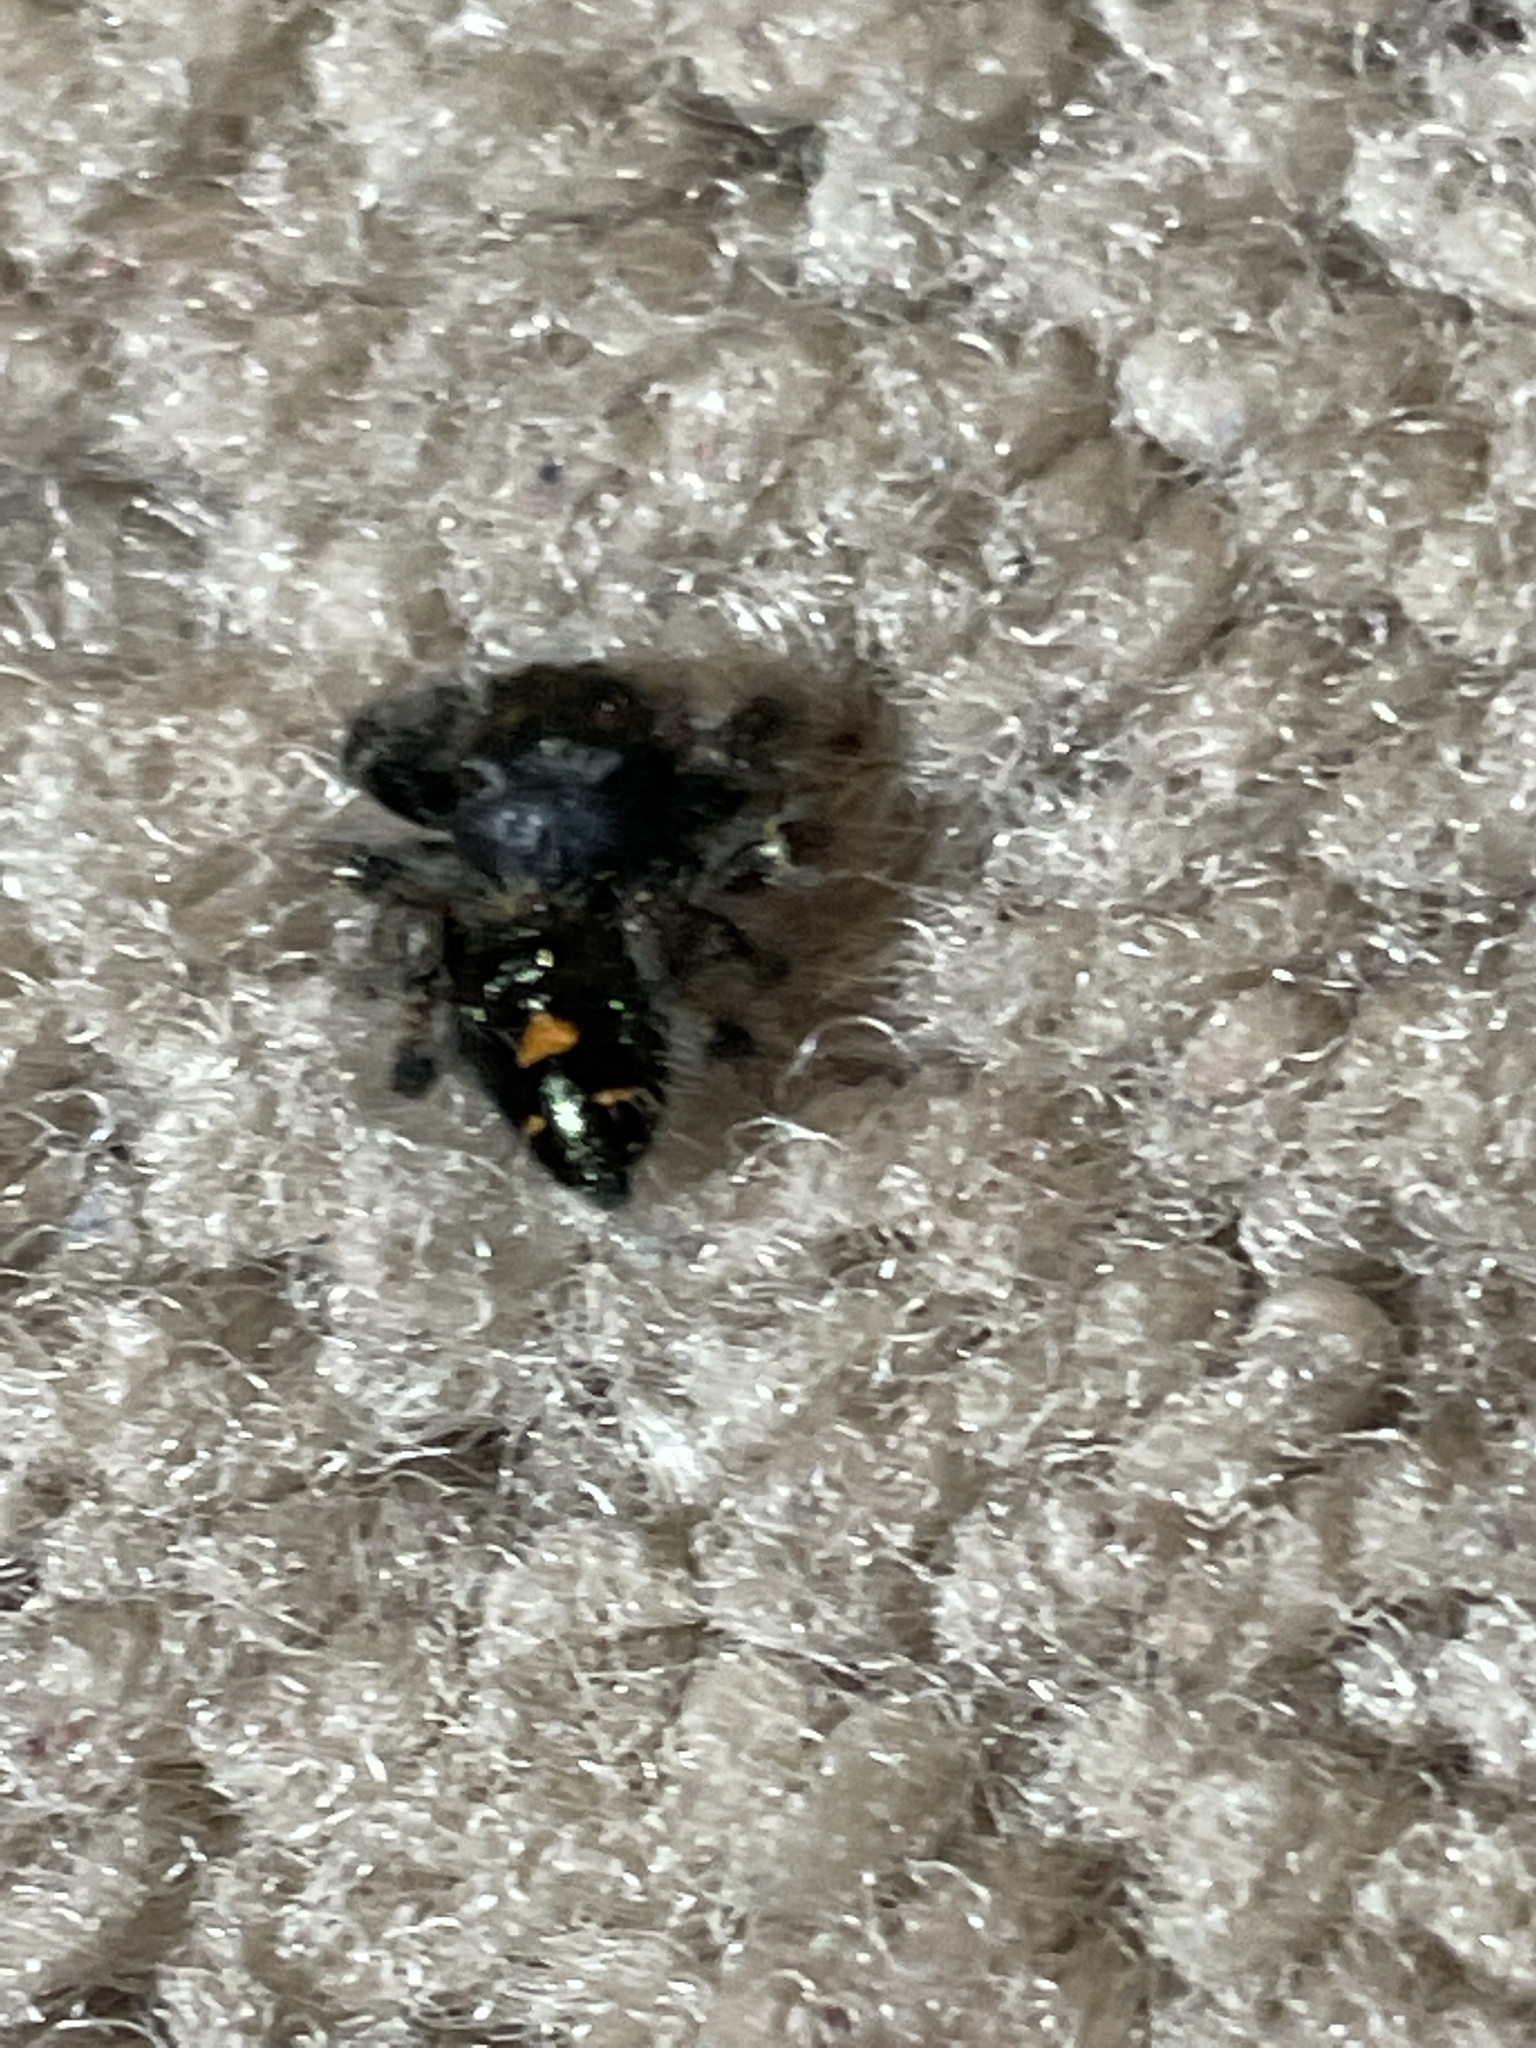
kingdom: Animalia
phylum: Arthropoda
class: Arachnida
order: Araneae
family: Salticidae
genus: Phidippus
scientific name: Phidippus audax
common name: Bold jumper
